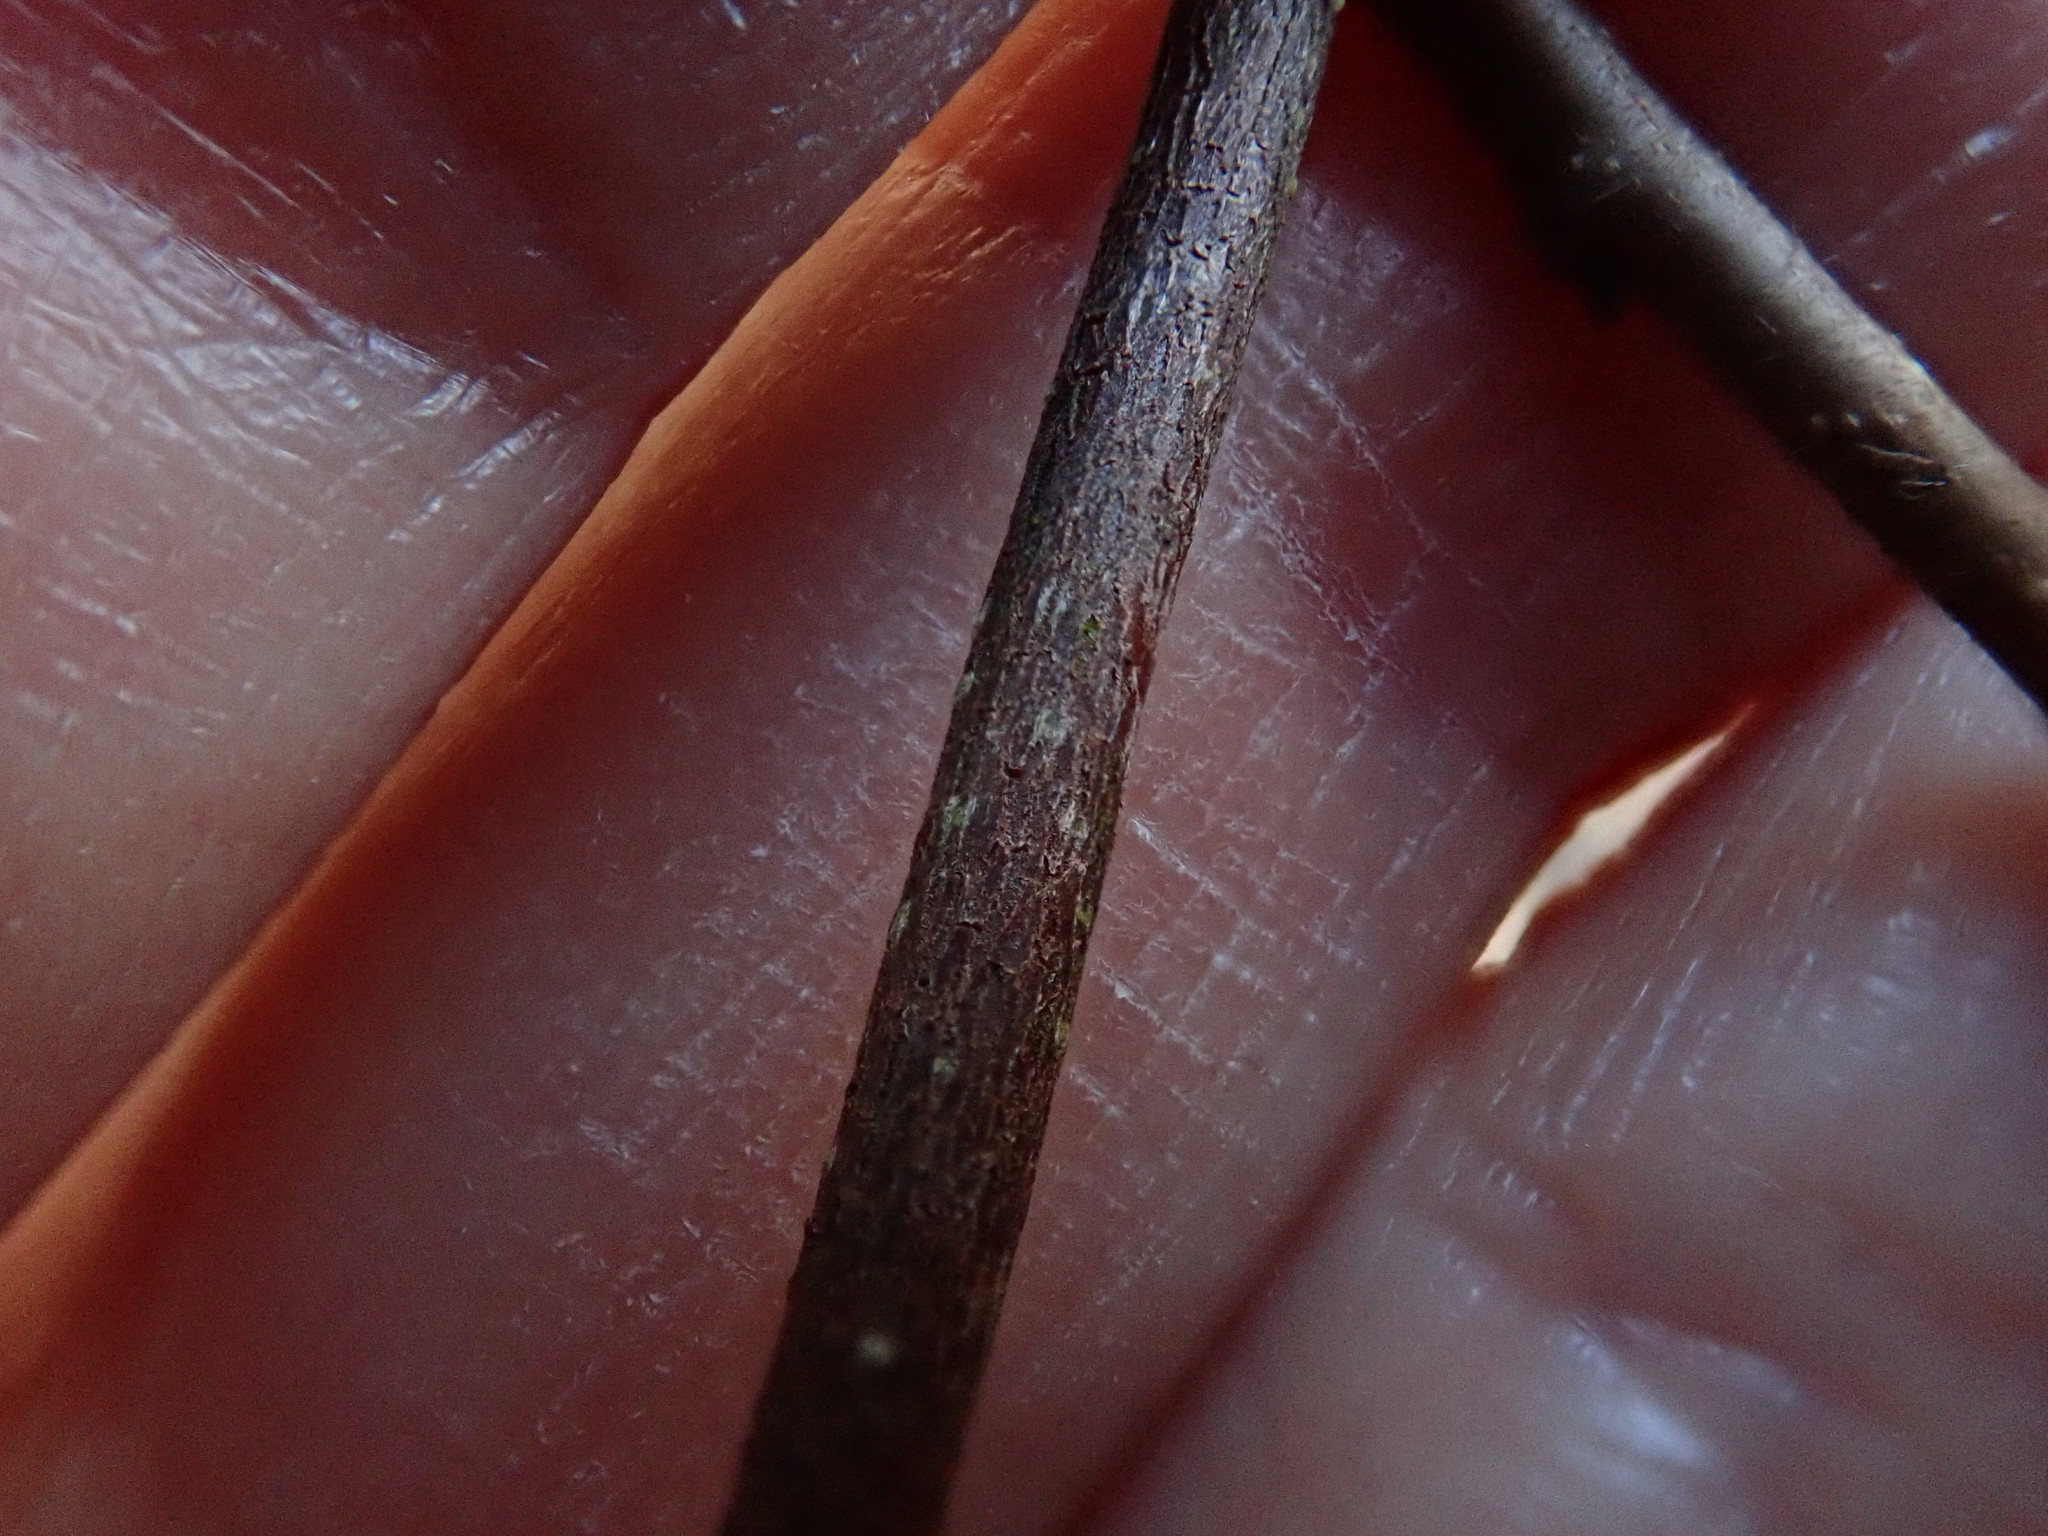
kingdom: Plantae
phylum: Tracheophyta
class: Magnoliopsida
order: Fagales
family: Betulaceae
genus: Corylus
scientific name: Corylus cornuta
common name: Beaked hazel
